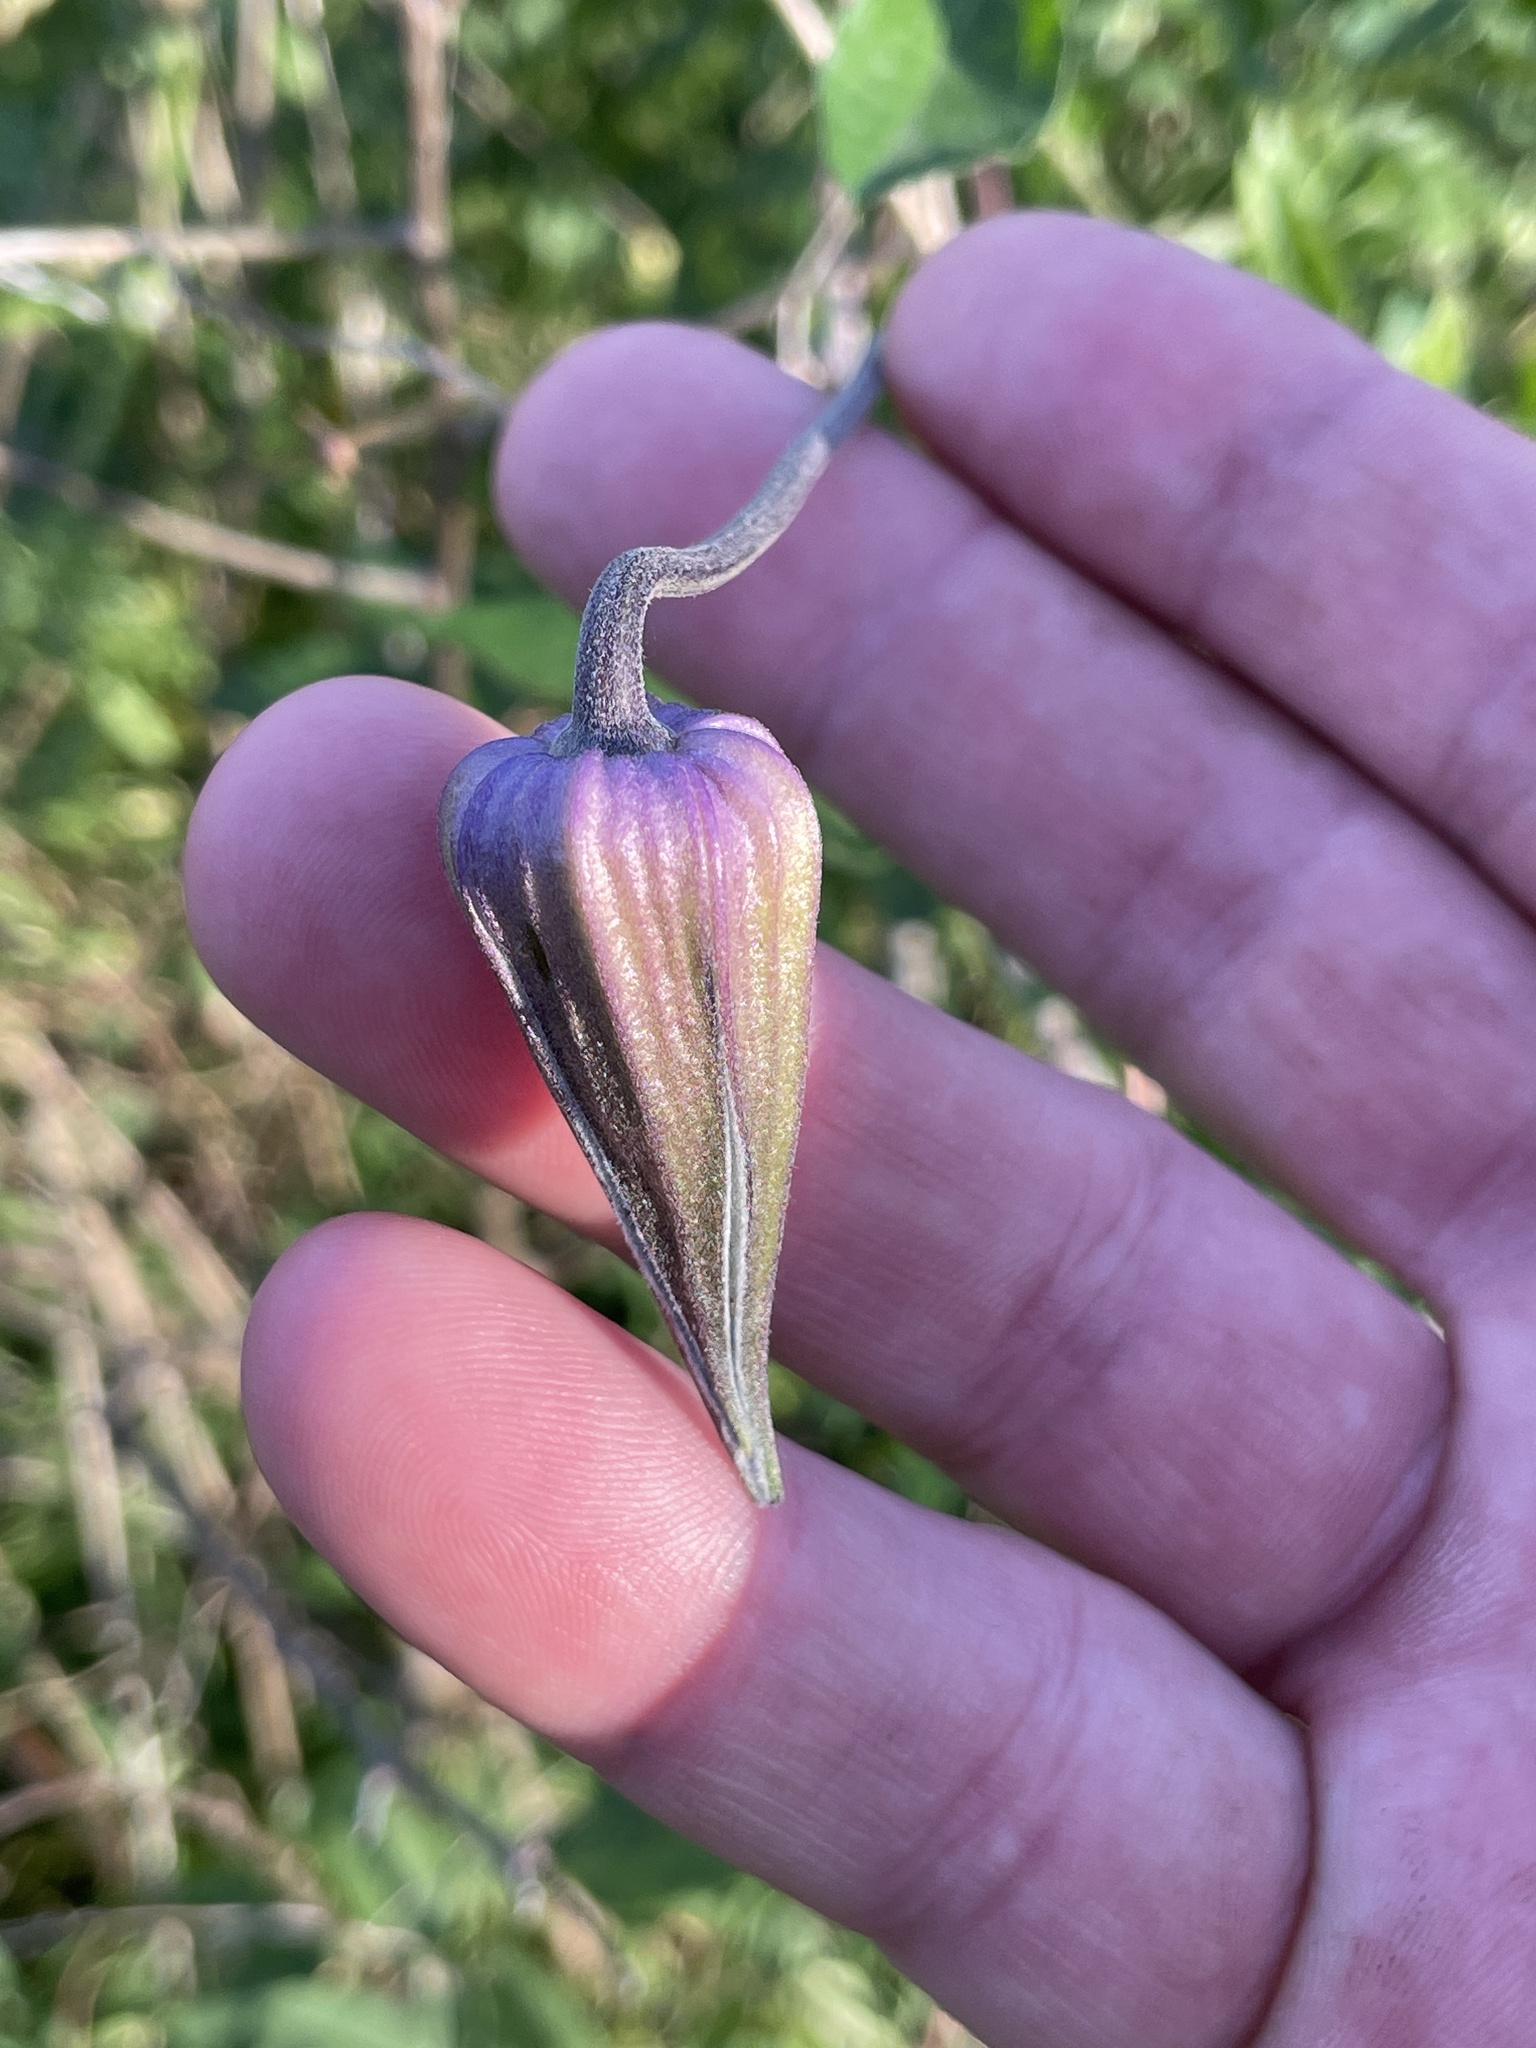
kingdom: Plantae
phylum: Tracheophyta
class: Magnoliopsida
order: Ranunculales
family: Ranunculaceae
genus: Clematis
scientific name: Clematis pitcheri
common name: Bellflower clematis
